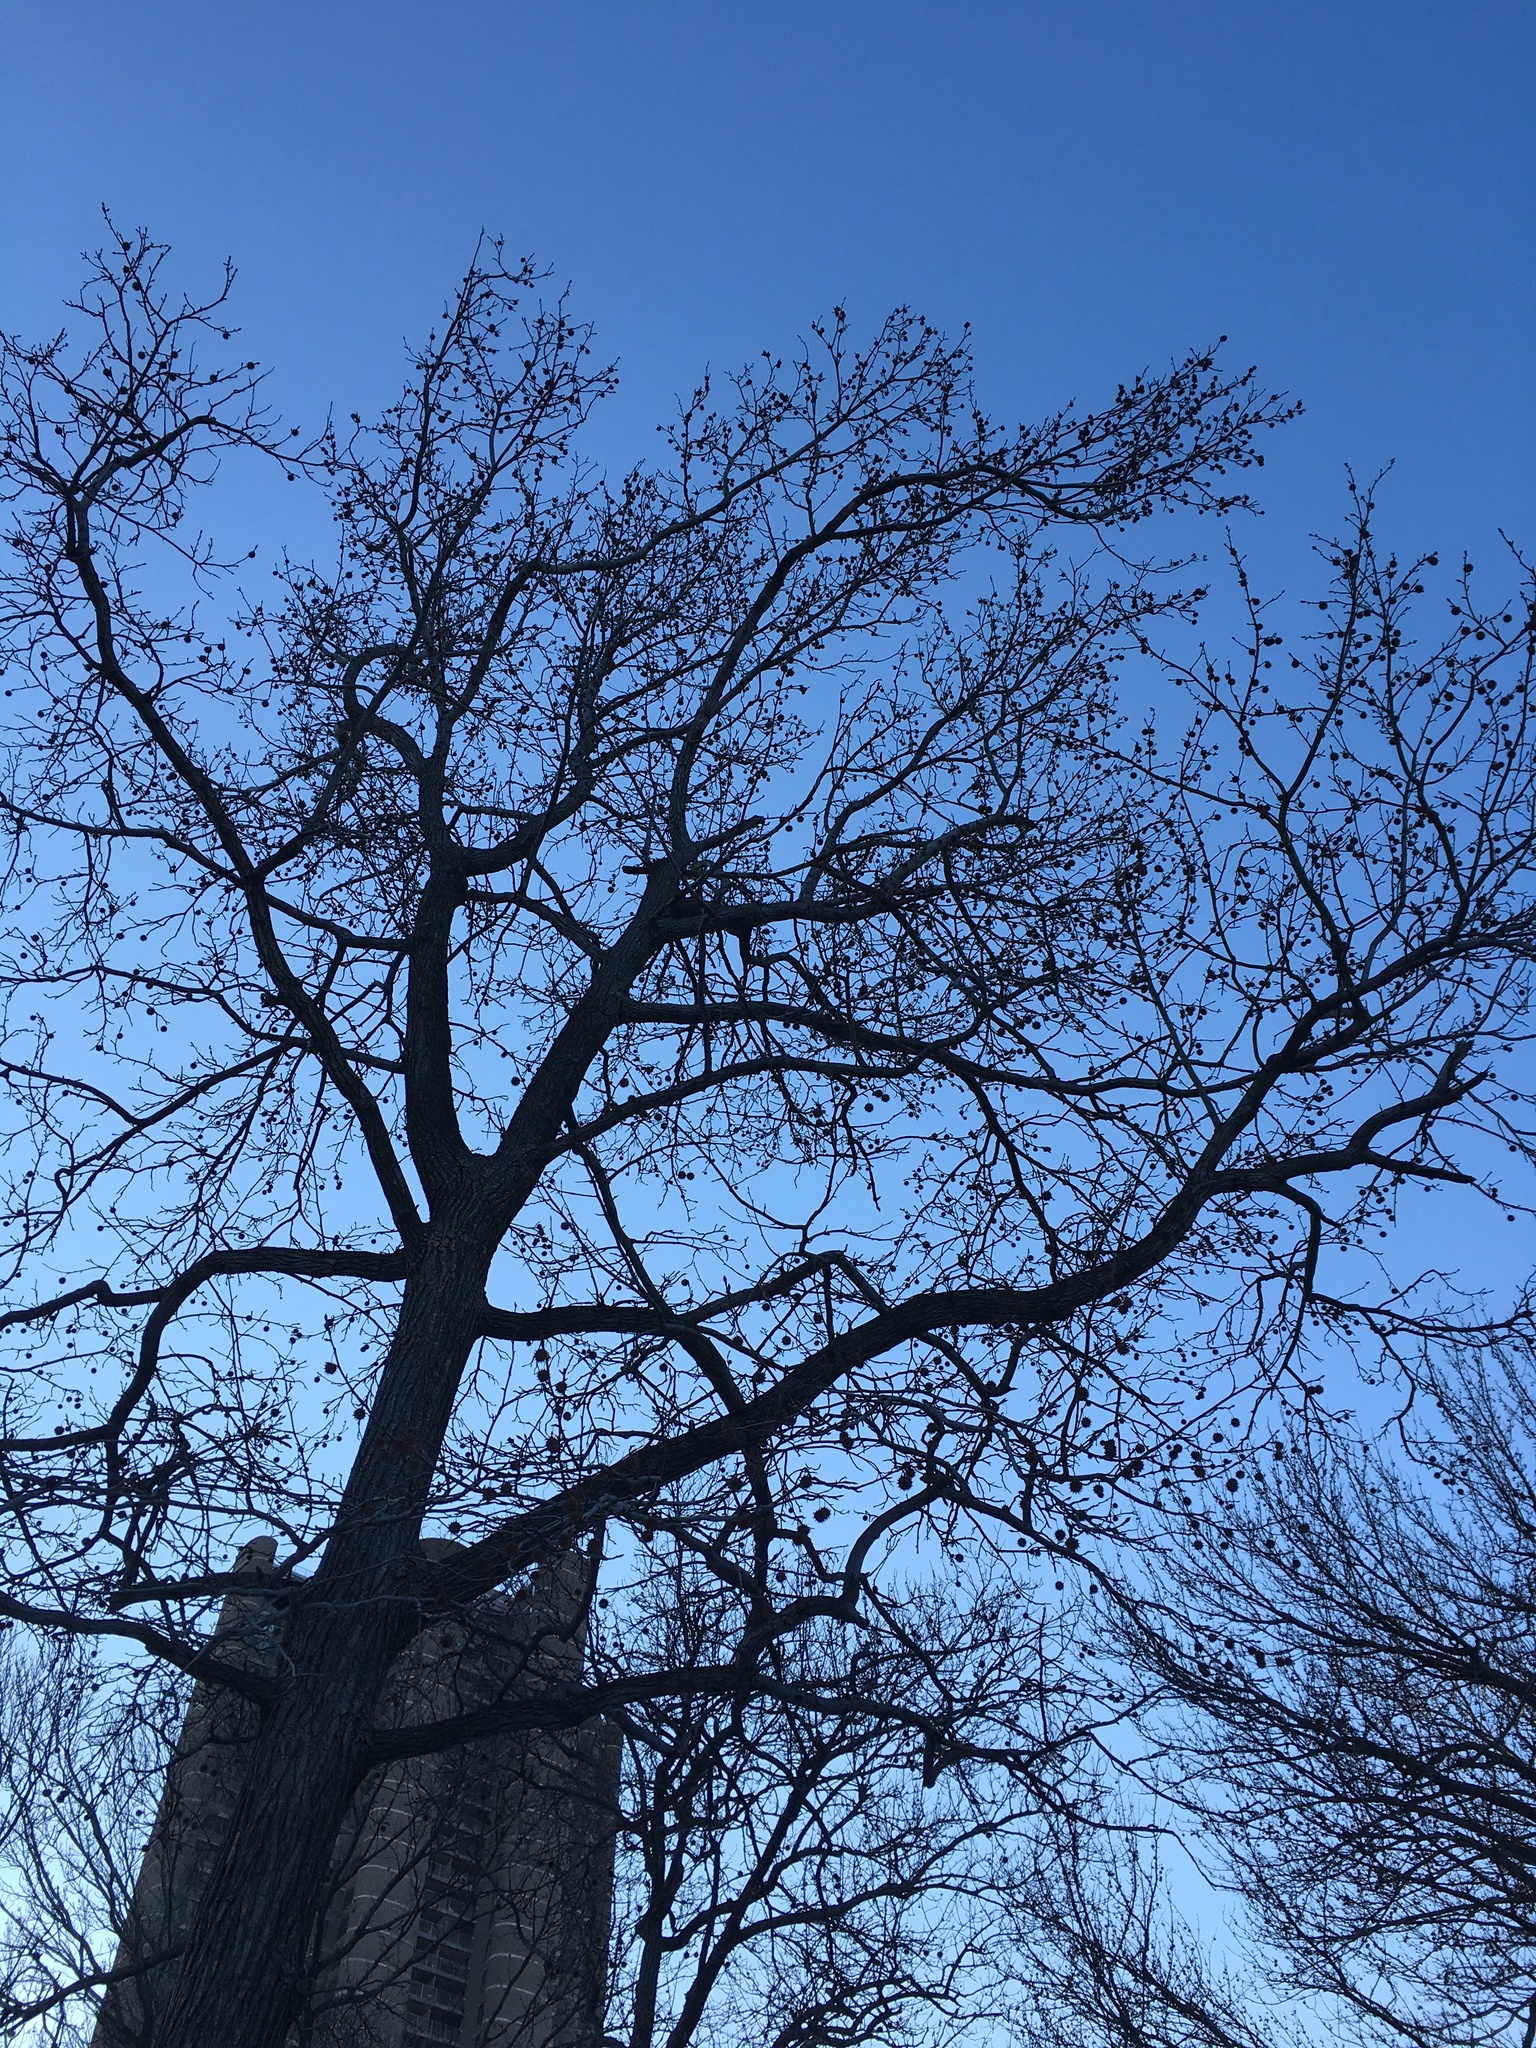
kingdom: Plantae
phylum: Tracheophyta
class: Magnoliopsida
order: Saxifragales
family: Altingiaceae
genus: Liquidambar
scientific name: Liquidambar styraciflua
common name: Sweet gum
